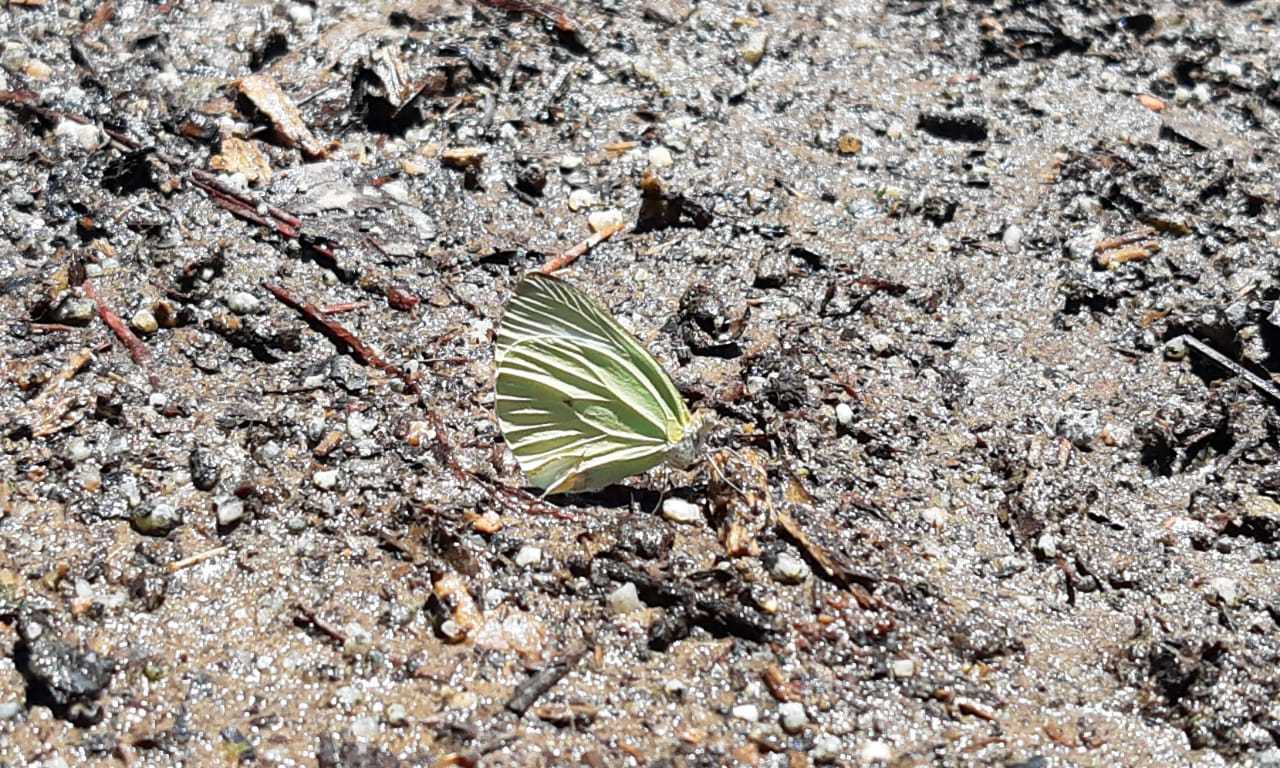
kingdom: Animalia
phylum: Arthropoda
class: Insecta
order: Lepidoptera
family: Pieridae
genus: Pseudopieris
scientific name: Pseudopieris nehemia
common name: Clean mimic-white
